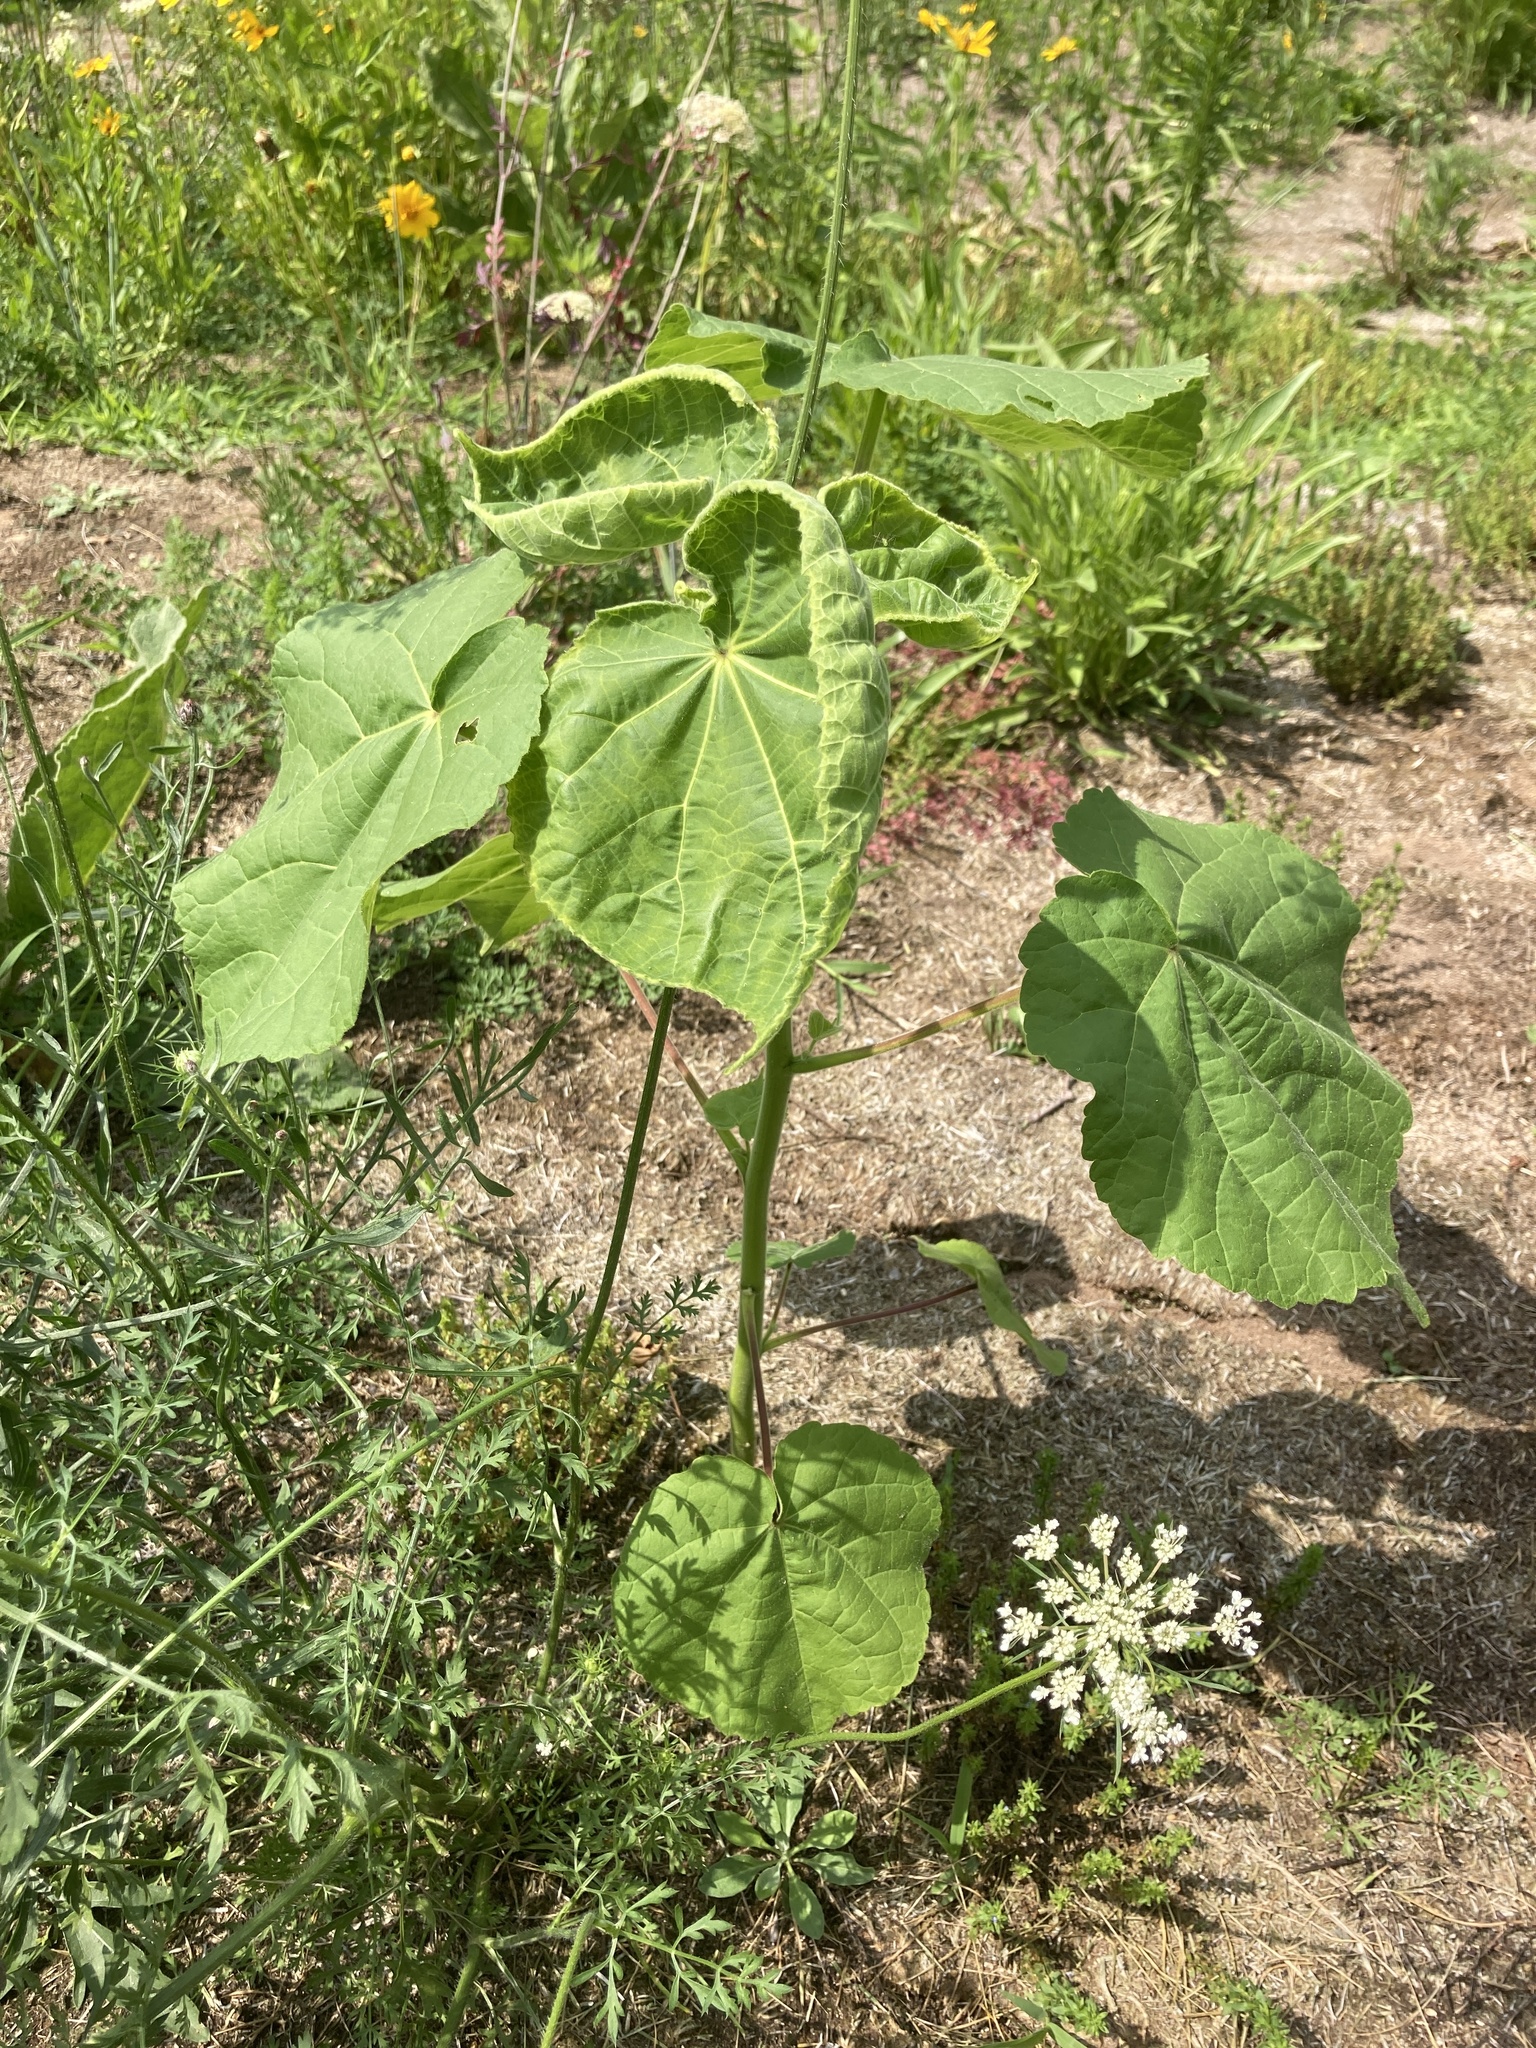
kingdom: Plantae
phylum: Tracheophyta
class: Magnoliopsida
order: Malvales
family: Malvaceae
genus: Abutilon
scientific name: Abutilon theophrasti
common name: Velvetleaf
